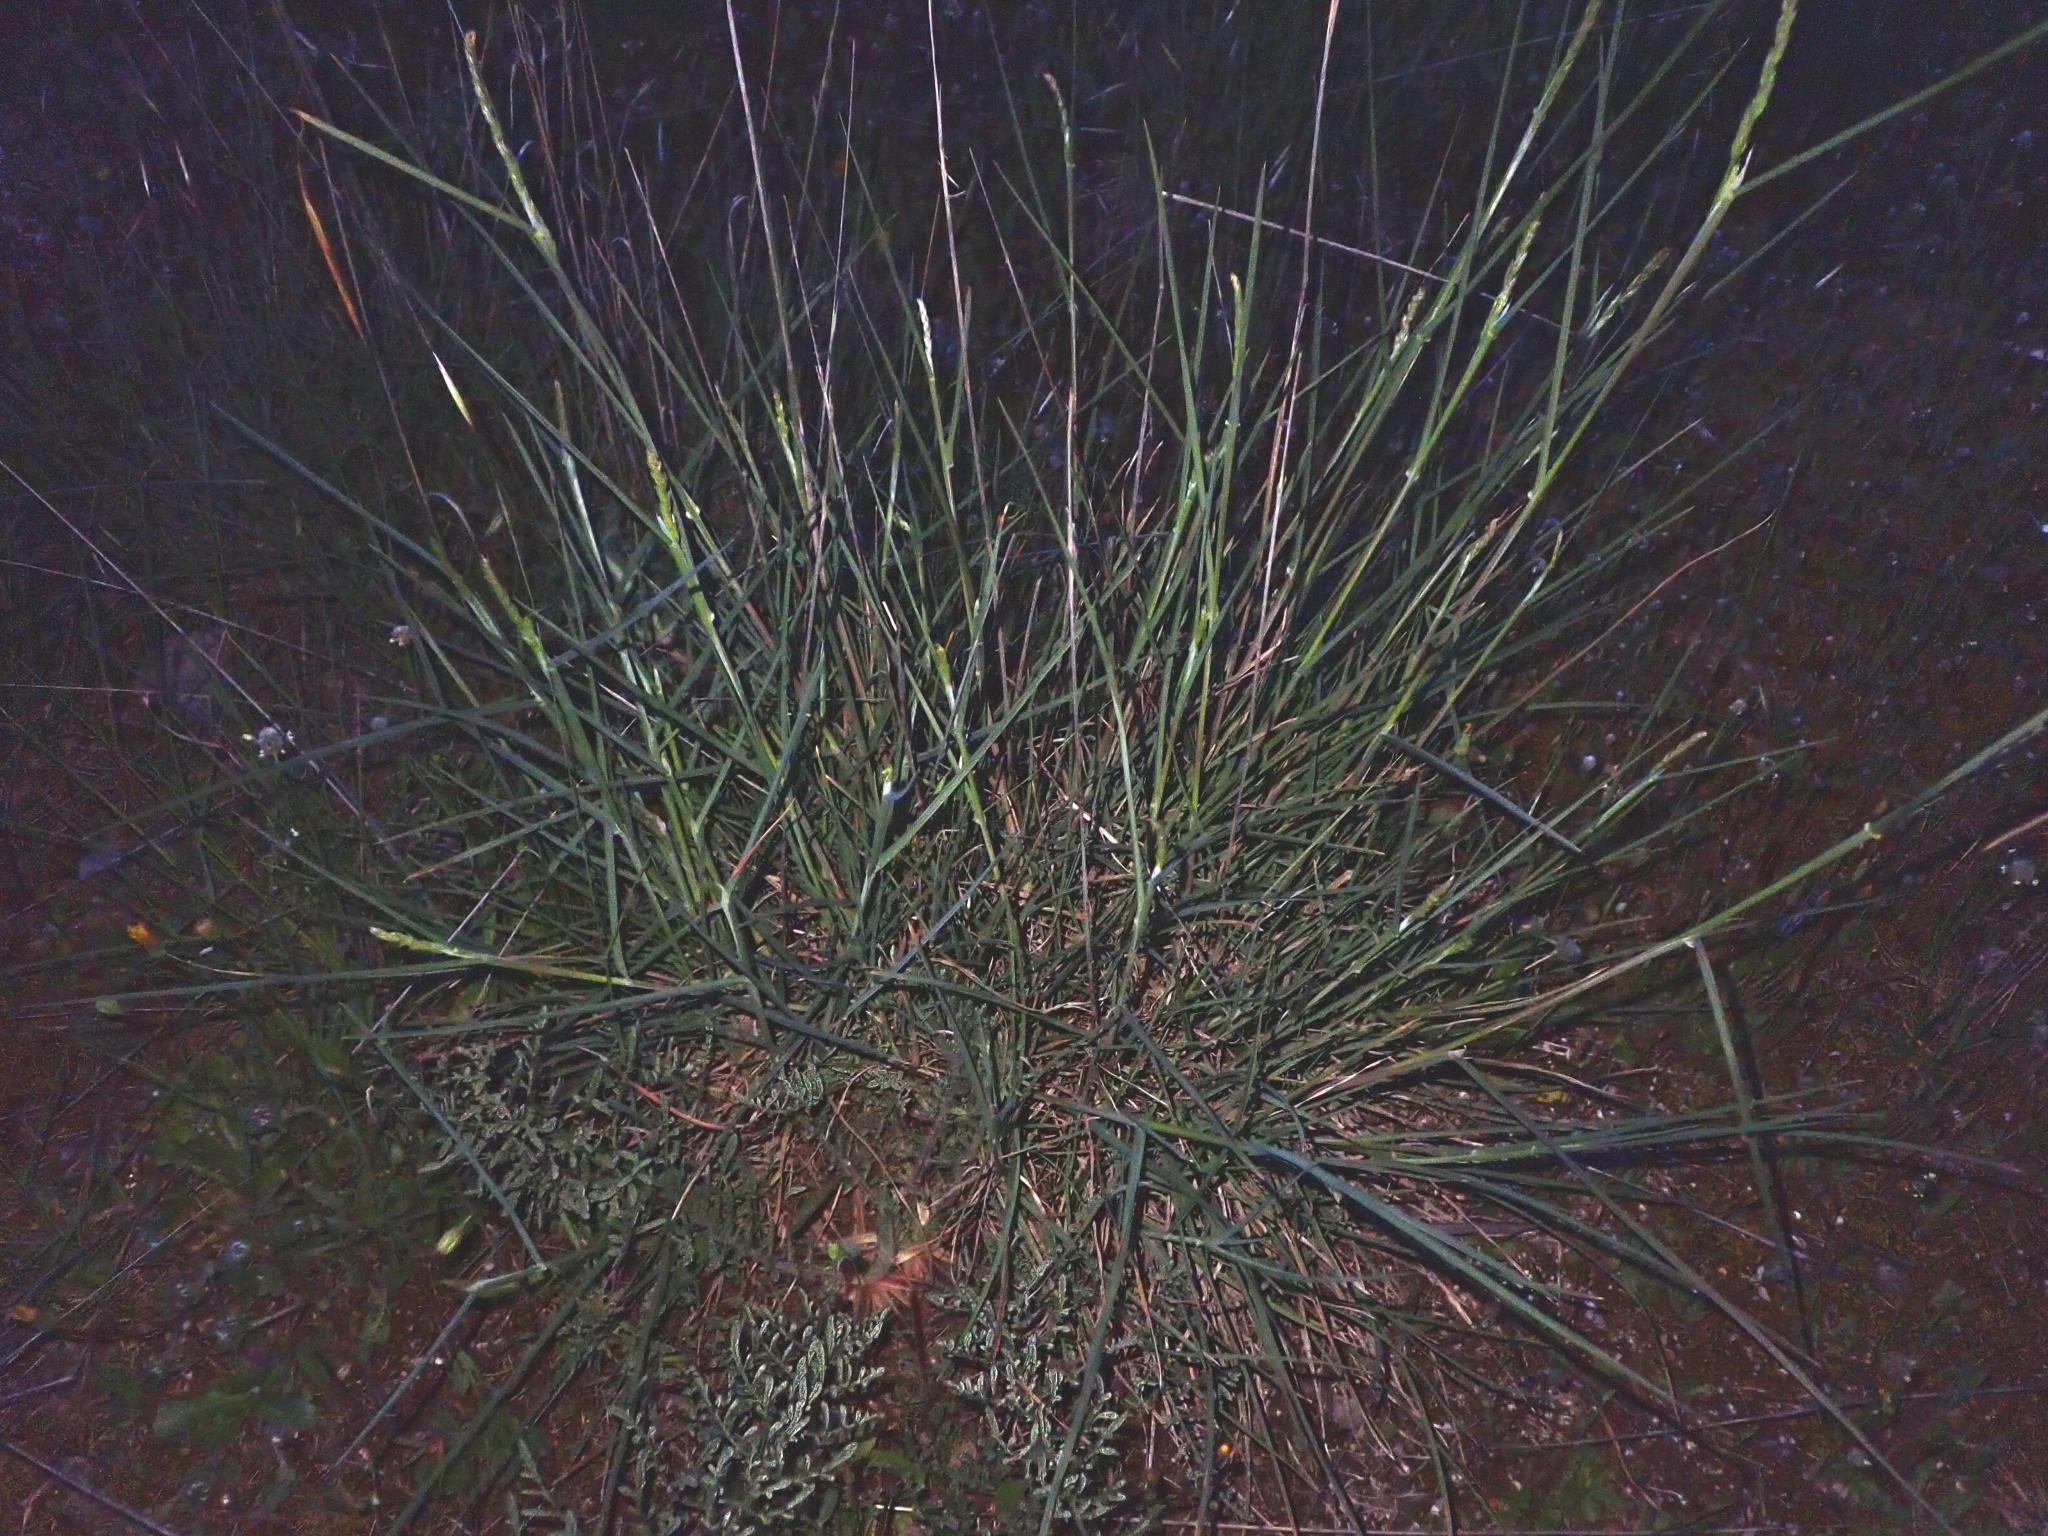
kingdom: Plantae
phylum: Tracheophyta
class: Liliopsida
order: Poales
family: Poaceae
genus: Dactylis
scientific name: Dactylis glomerata
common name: Orchardgrass
